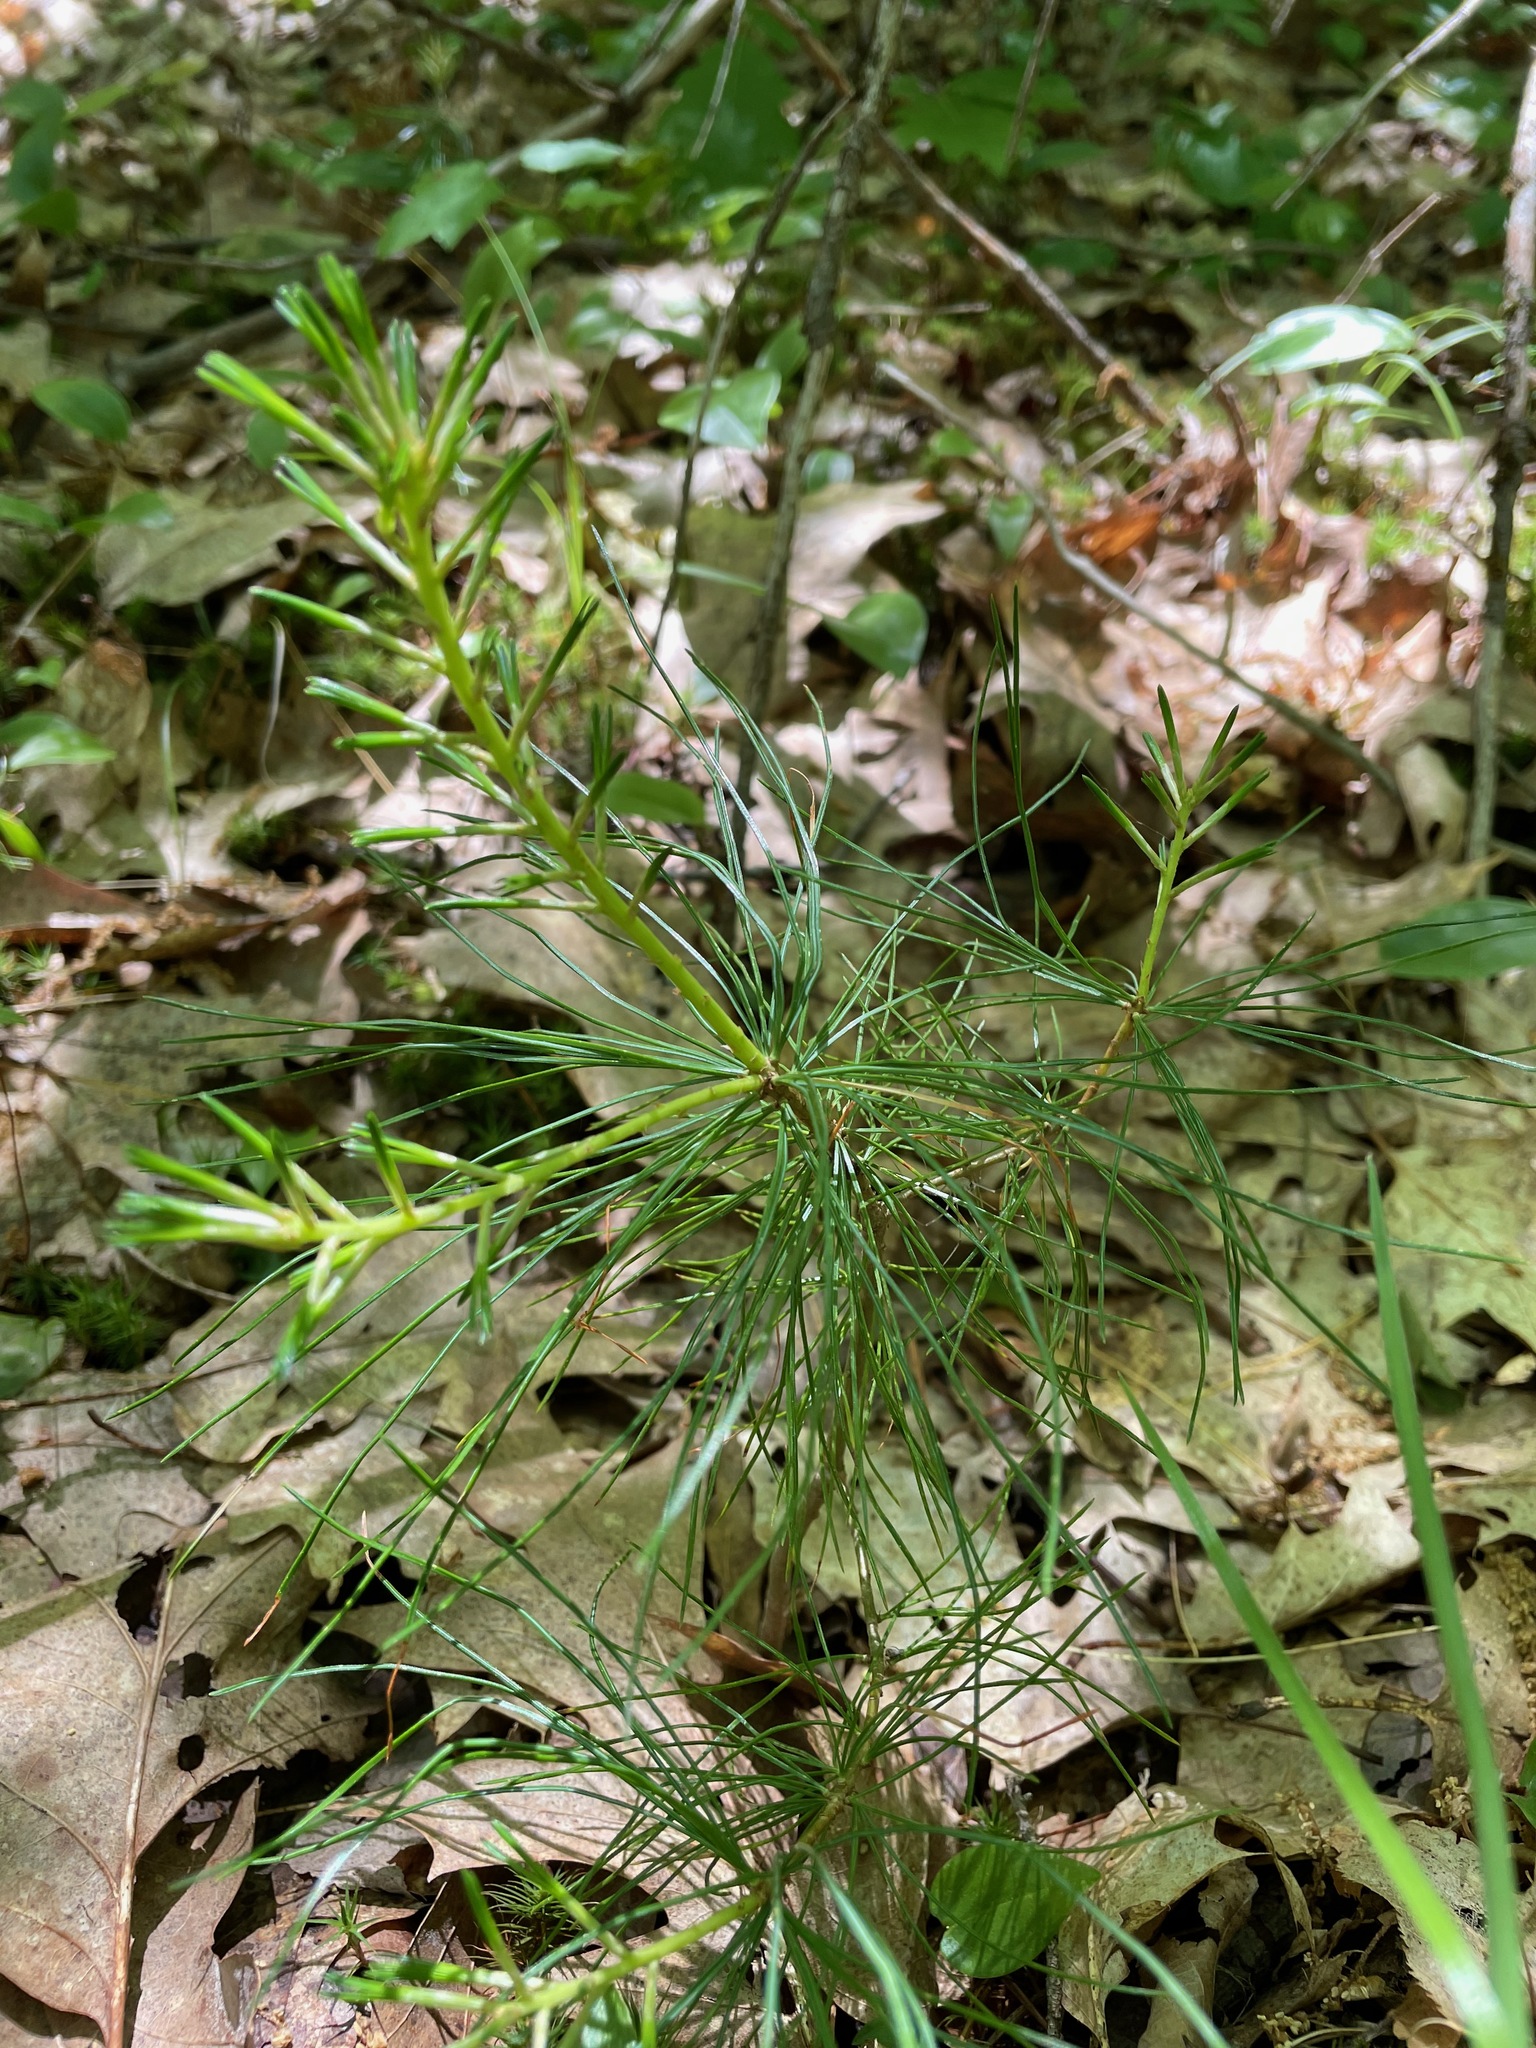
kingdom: Plantae
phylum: Tracheophyta
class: Pinopsida
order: Pinales
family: Pinaceae
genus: Pinus
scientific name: Pinus strobus
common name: Weymouth pine
